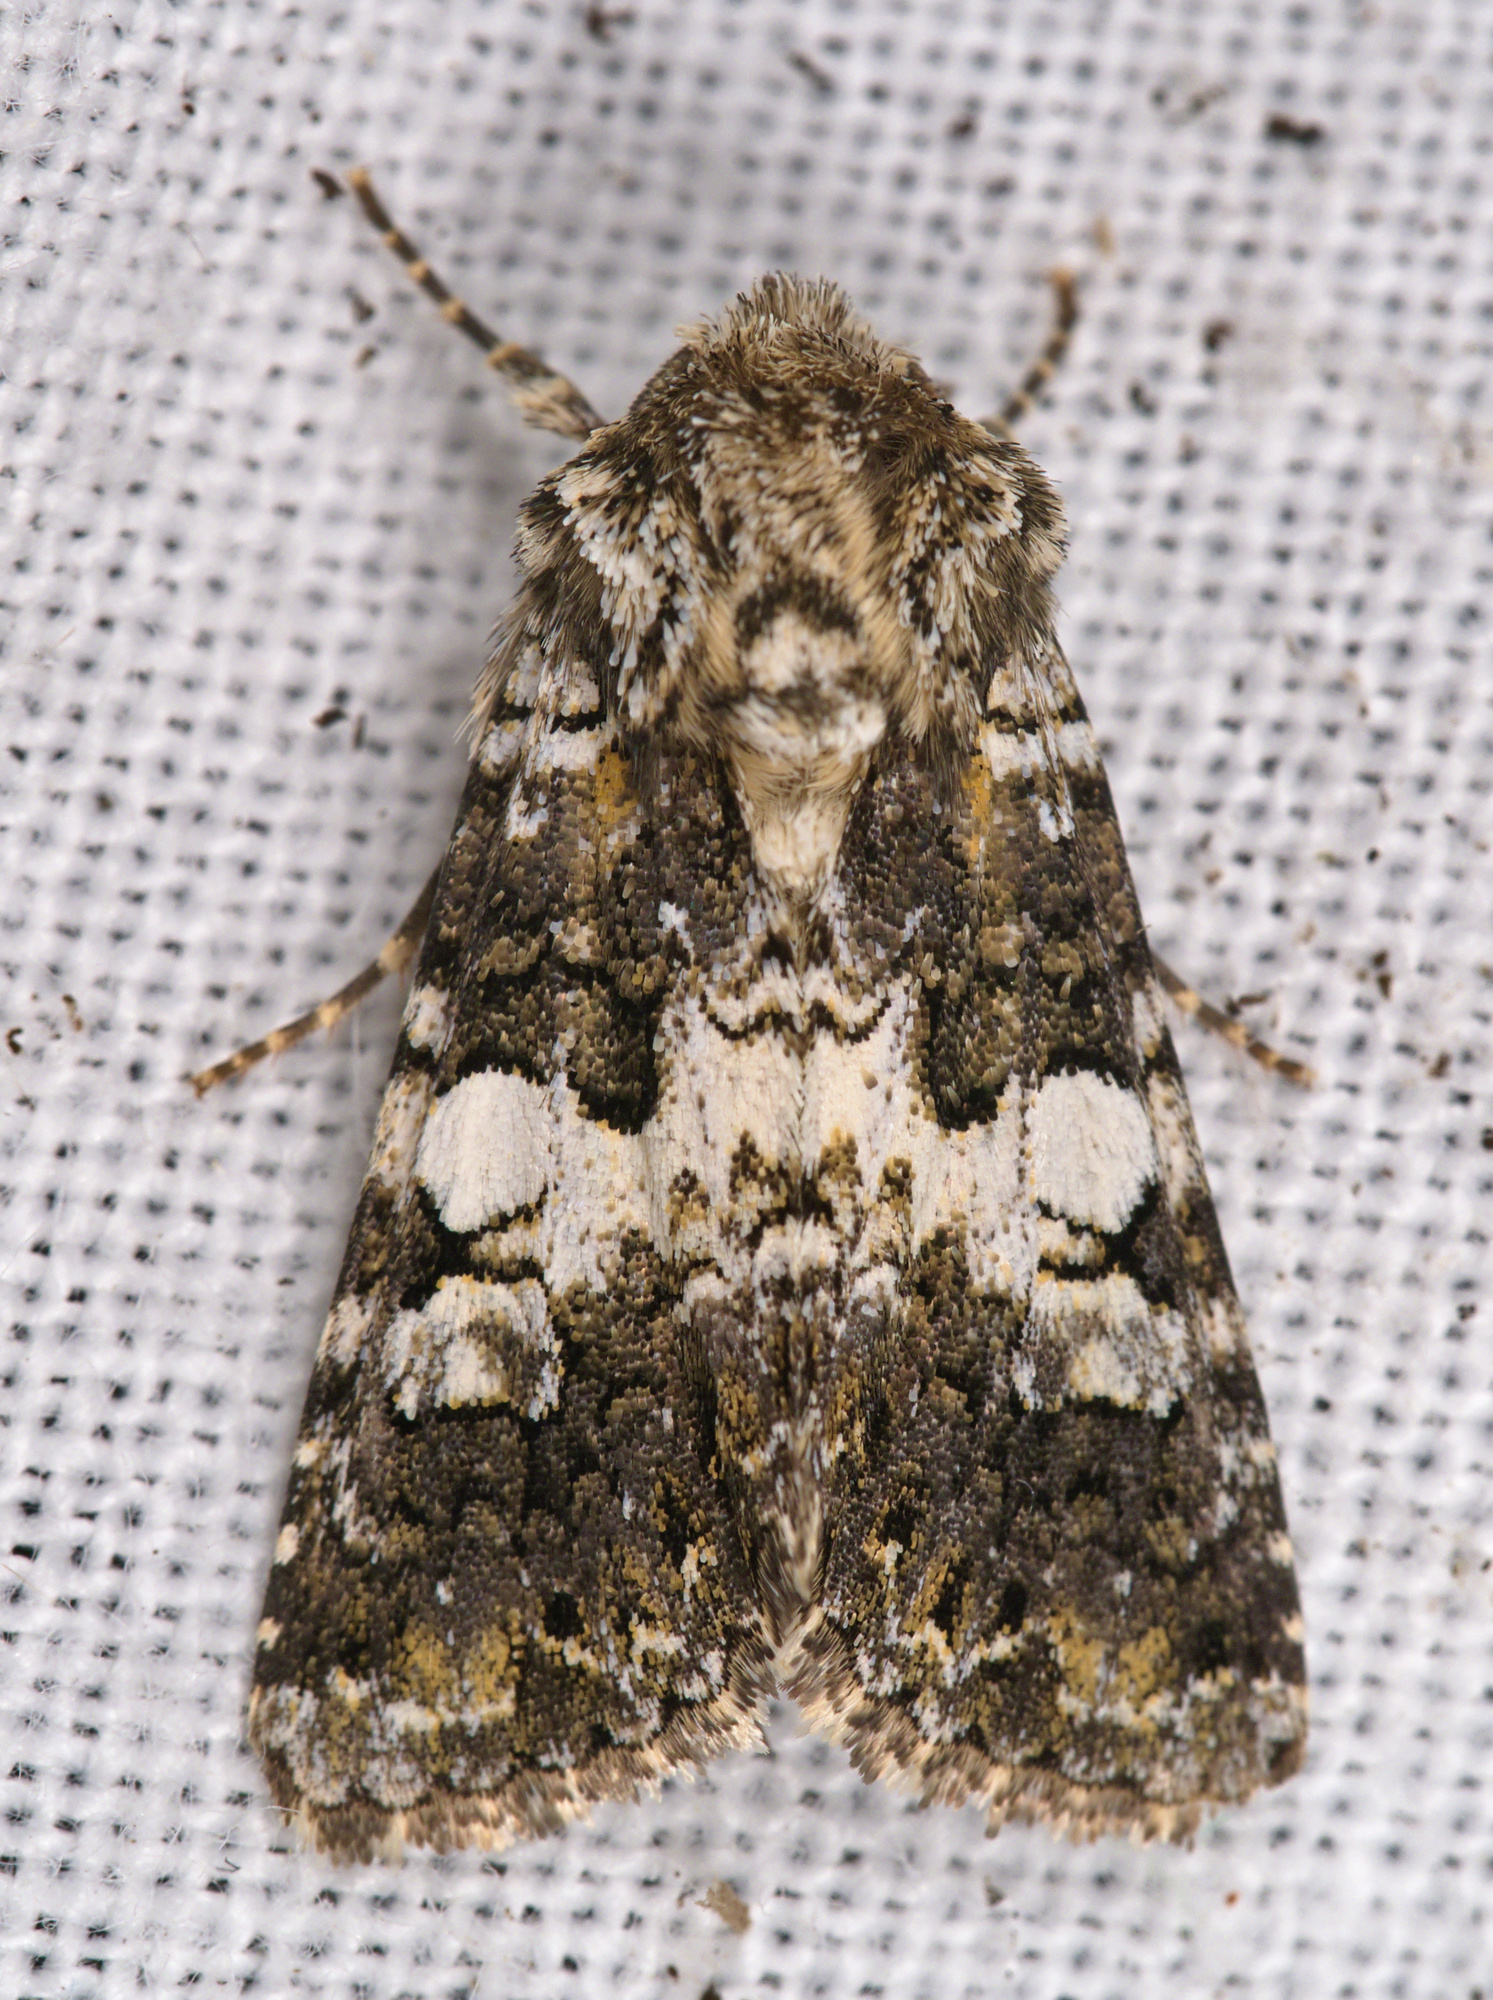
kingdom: Animalia
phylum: Arthropoda
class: Insecta
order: Lepidoptera
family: Noctuidae
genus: Hadena
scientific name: Hadena compta
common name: Varied coronet
